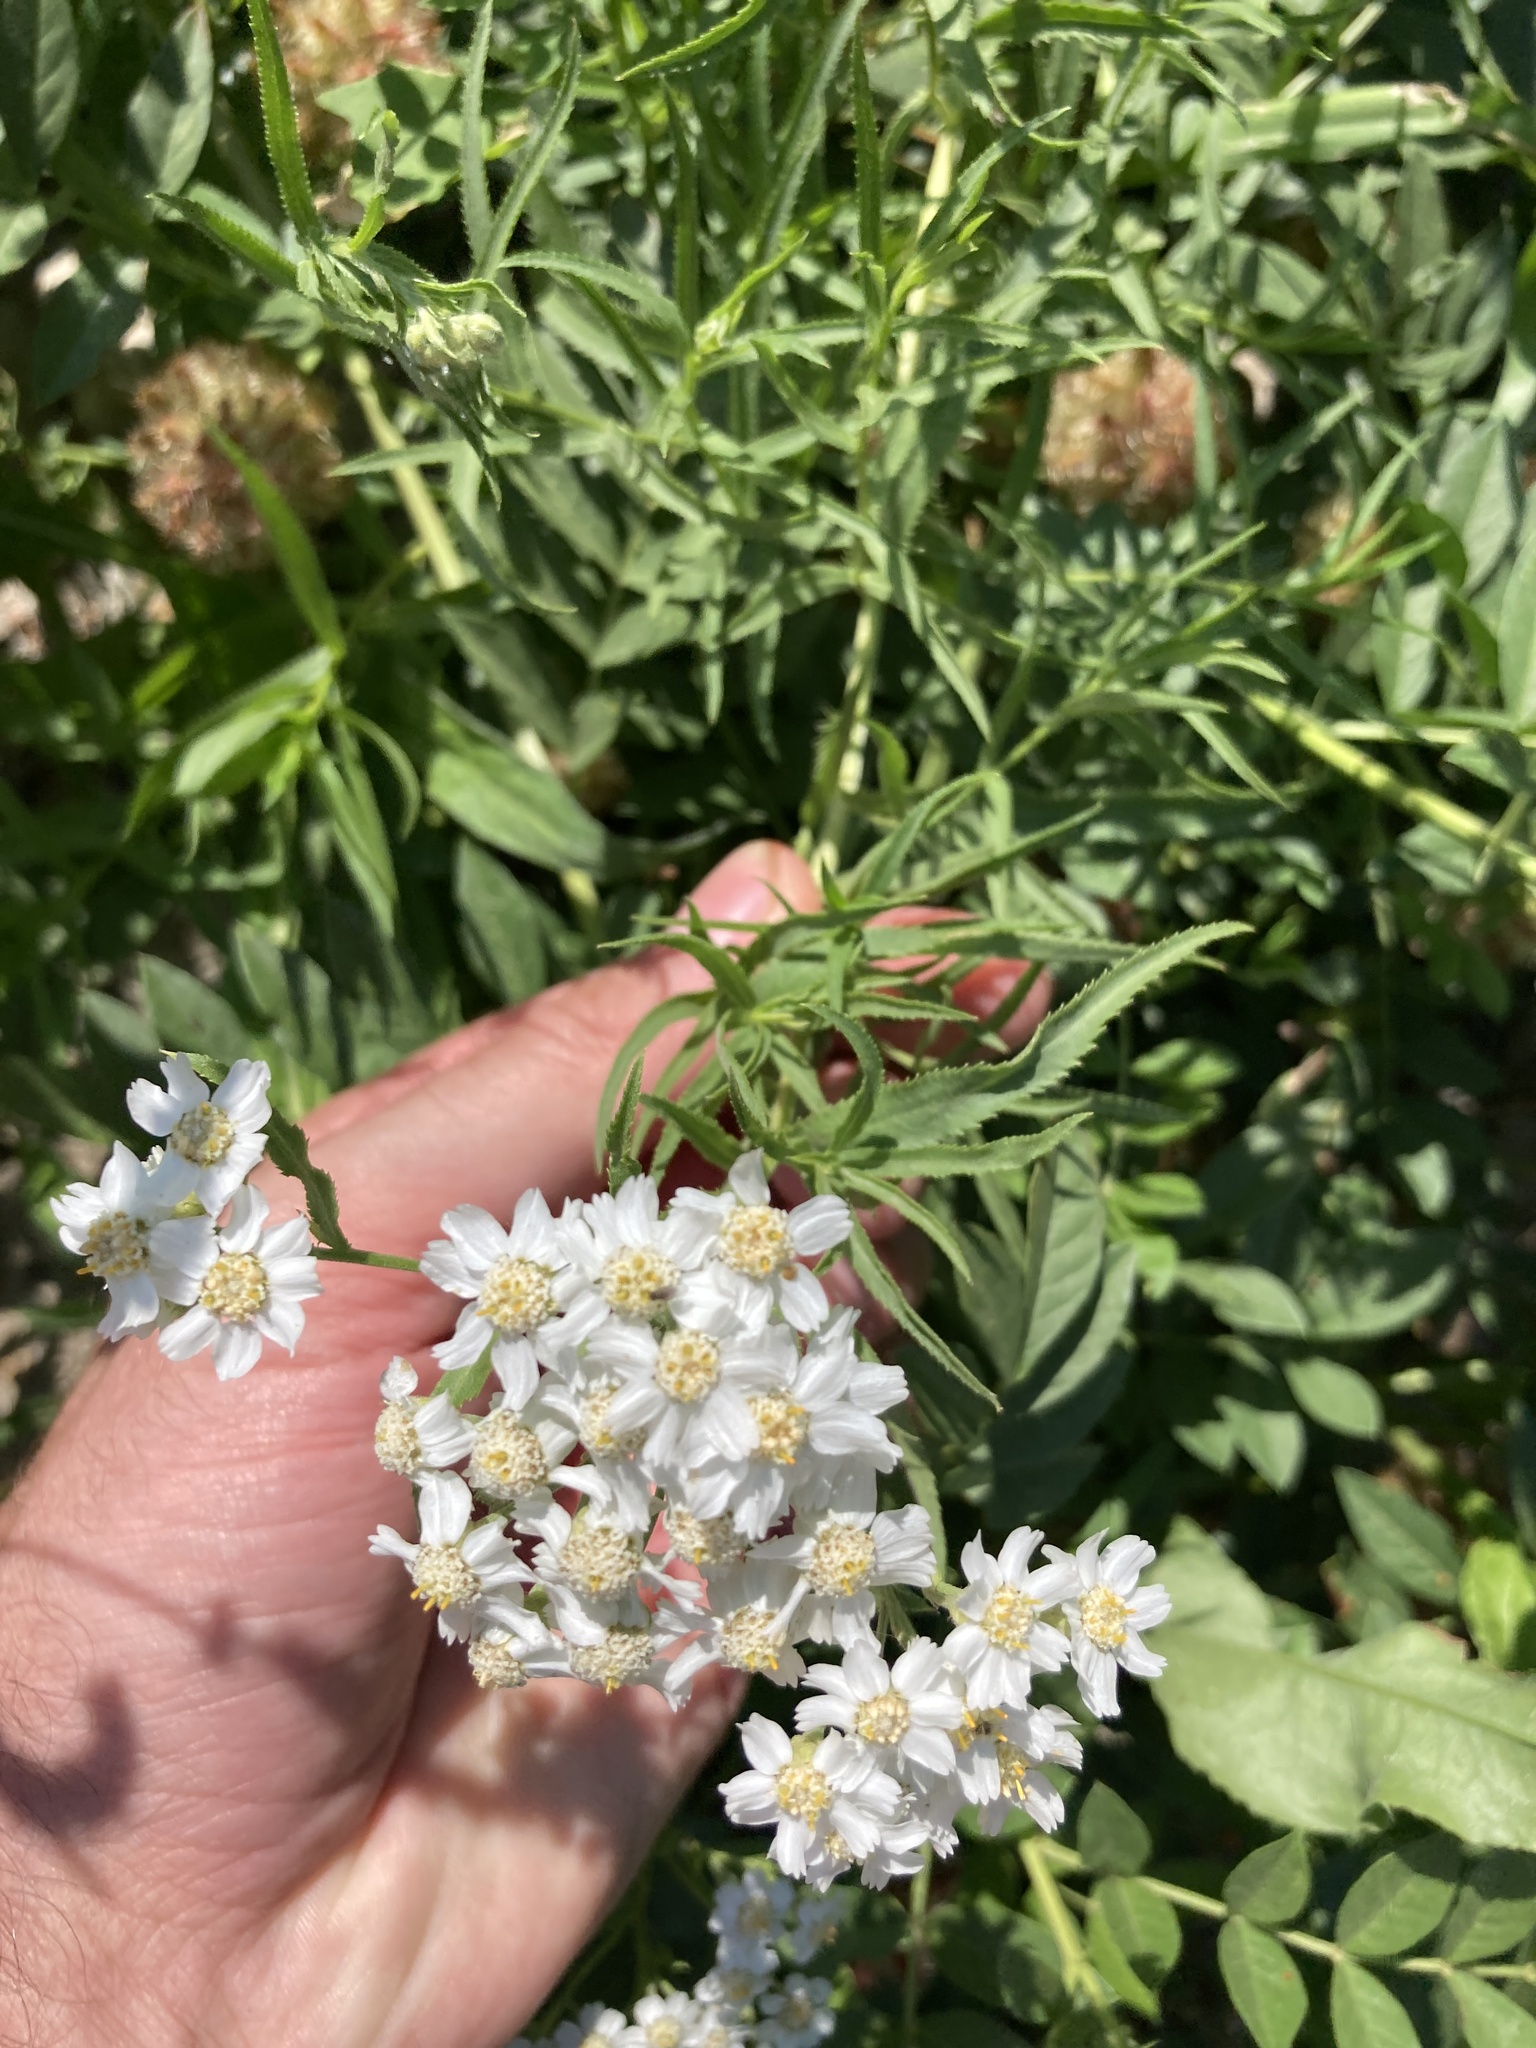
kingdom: Plantae
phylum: Tracheophyta
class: Magnoliopsida
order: Asterales
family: Asteraceae
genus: Achillea
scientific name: Achillea salicifolia
